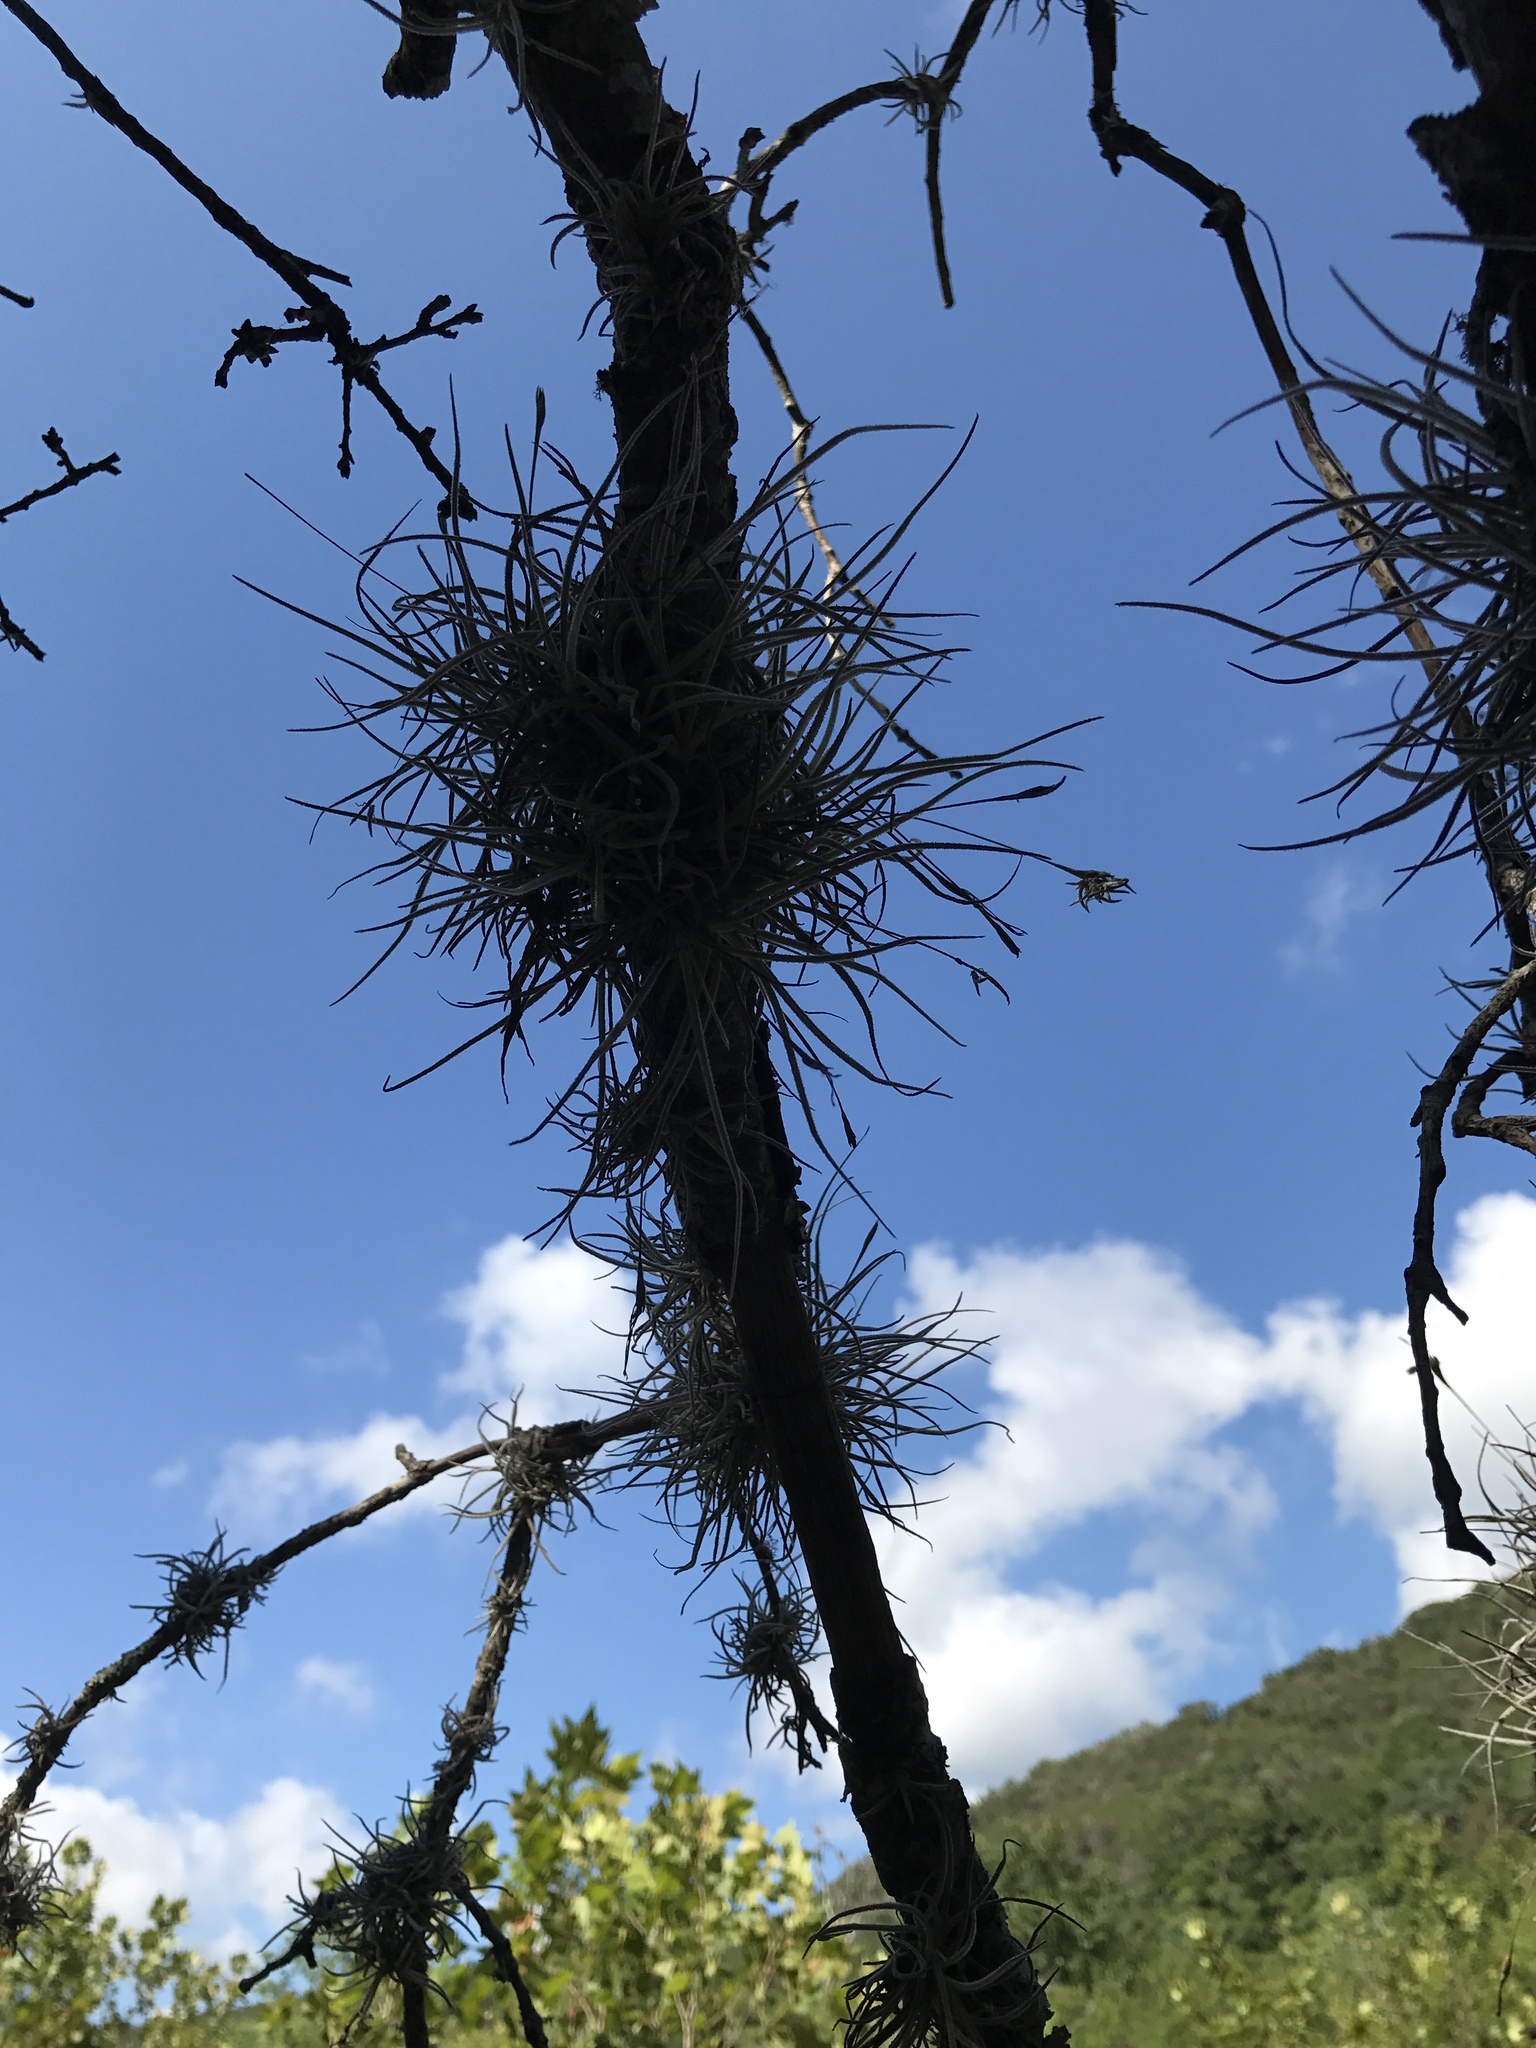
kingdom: Plantae
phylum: Tracheophyta
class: Liliopsida
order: Poales
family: Bromeliaceae
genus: Tillandsia
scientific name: Tillandsia recurvata
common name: Small ballmoss
